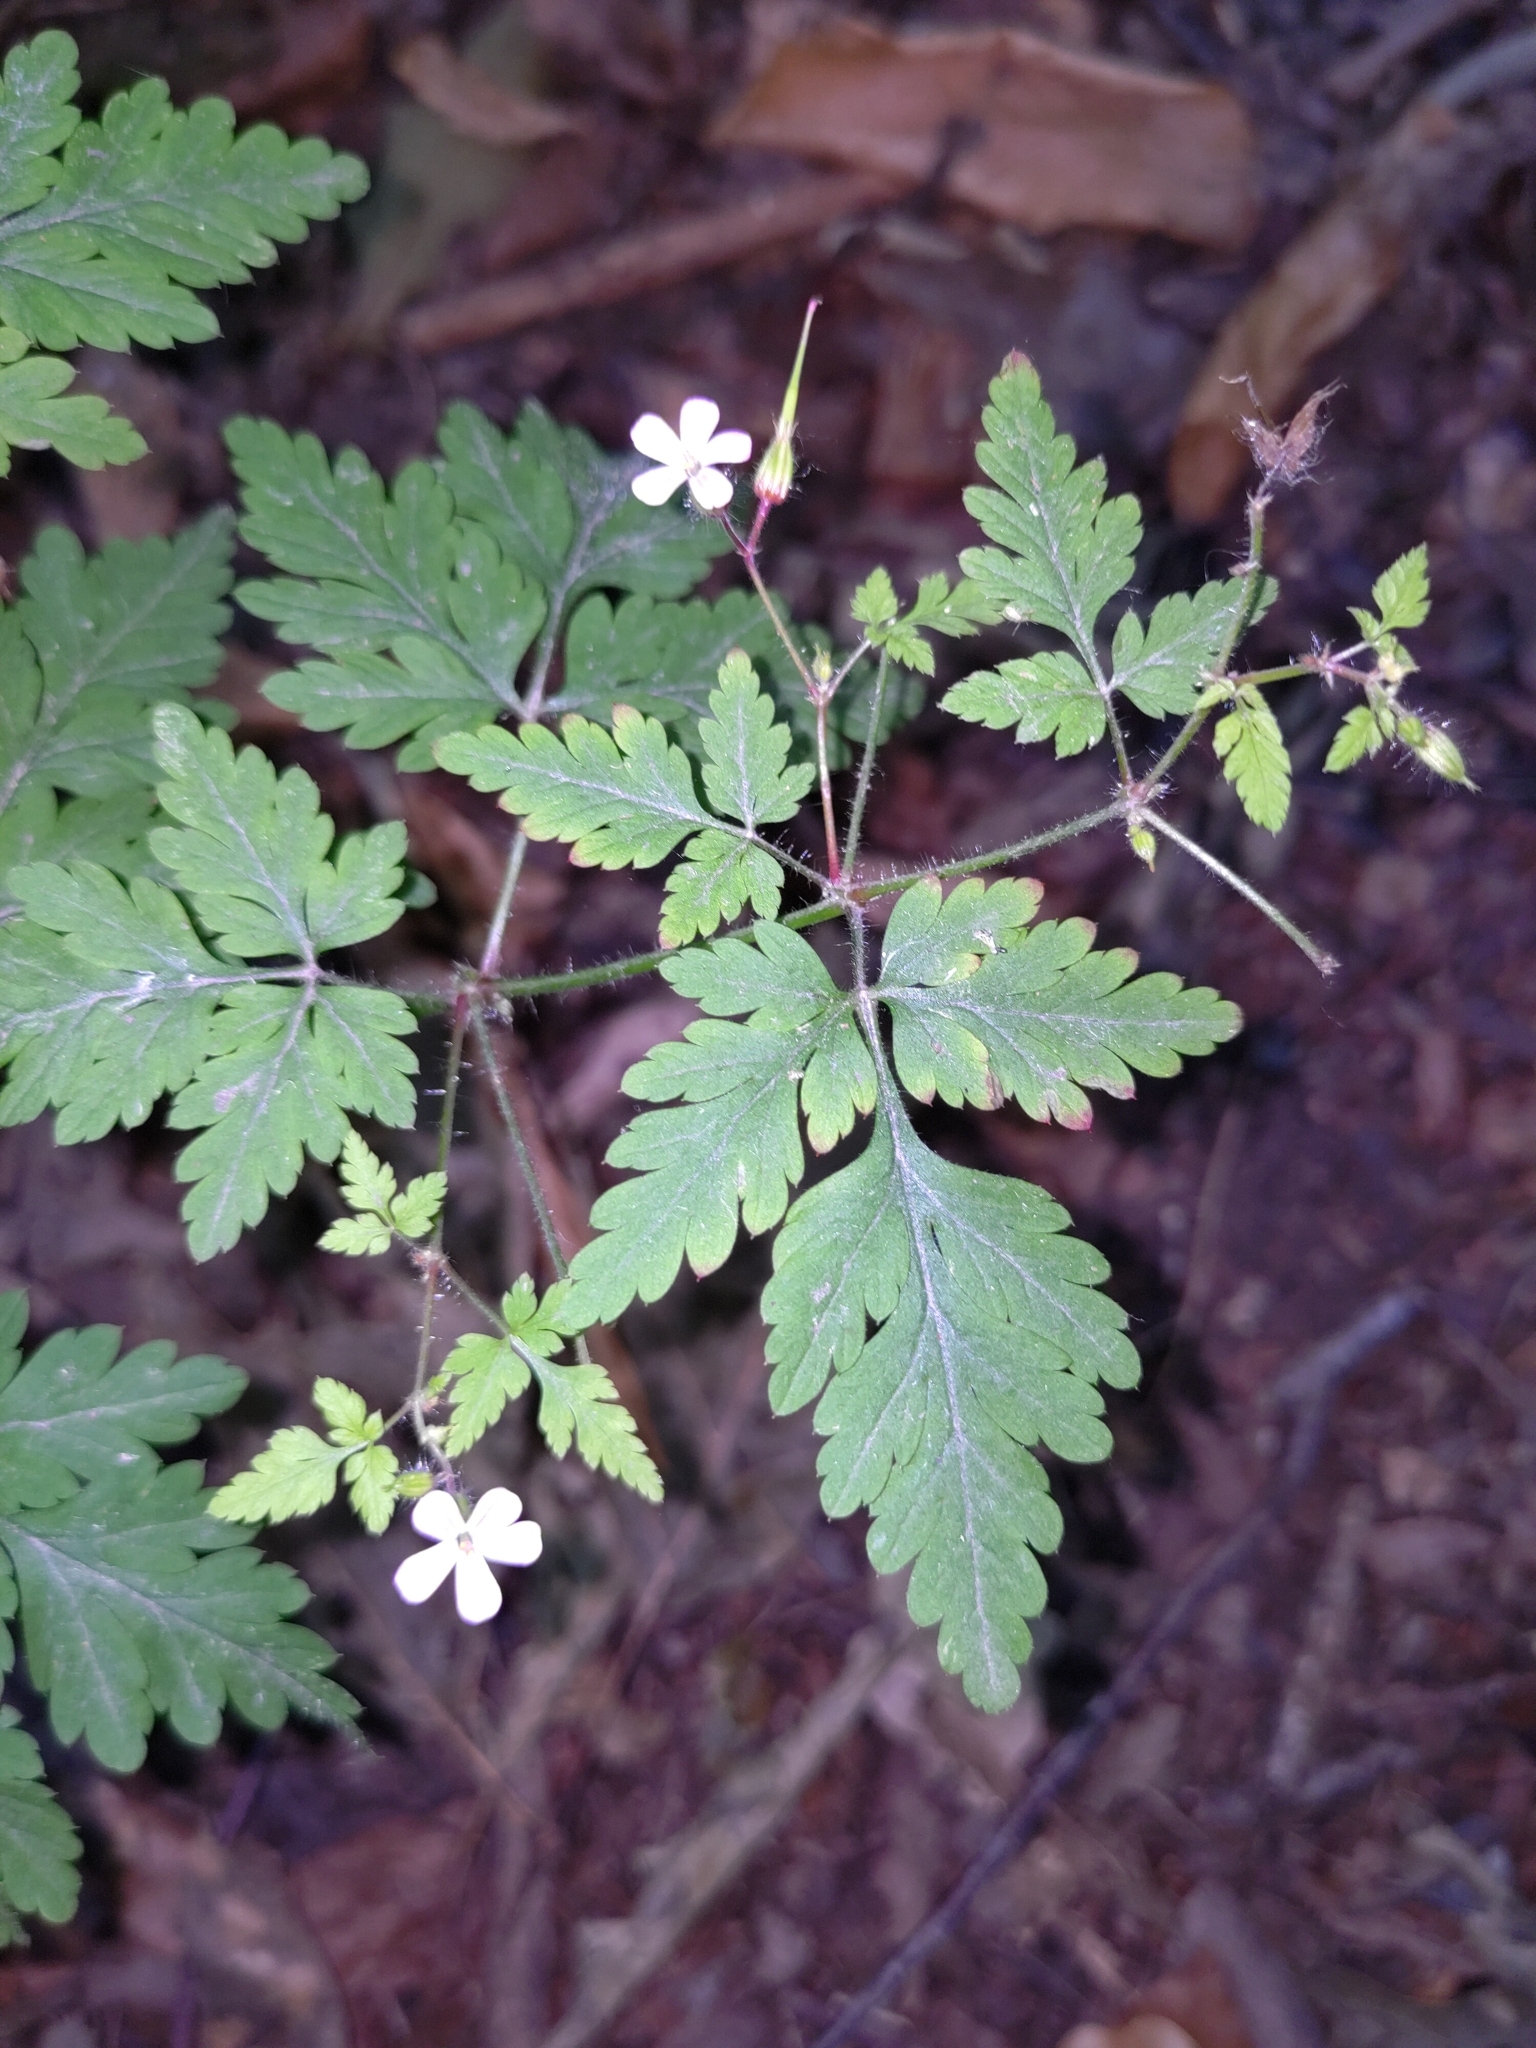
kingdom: Plantae
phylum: Tracheophyta
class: Magnoliopsida
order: Geraniales
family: Geraniaceae
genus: Geranium
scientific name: Geranium robertianum
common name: Herb-robert
